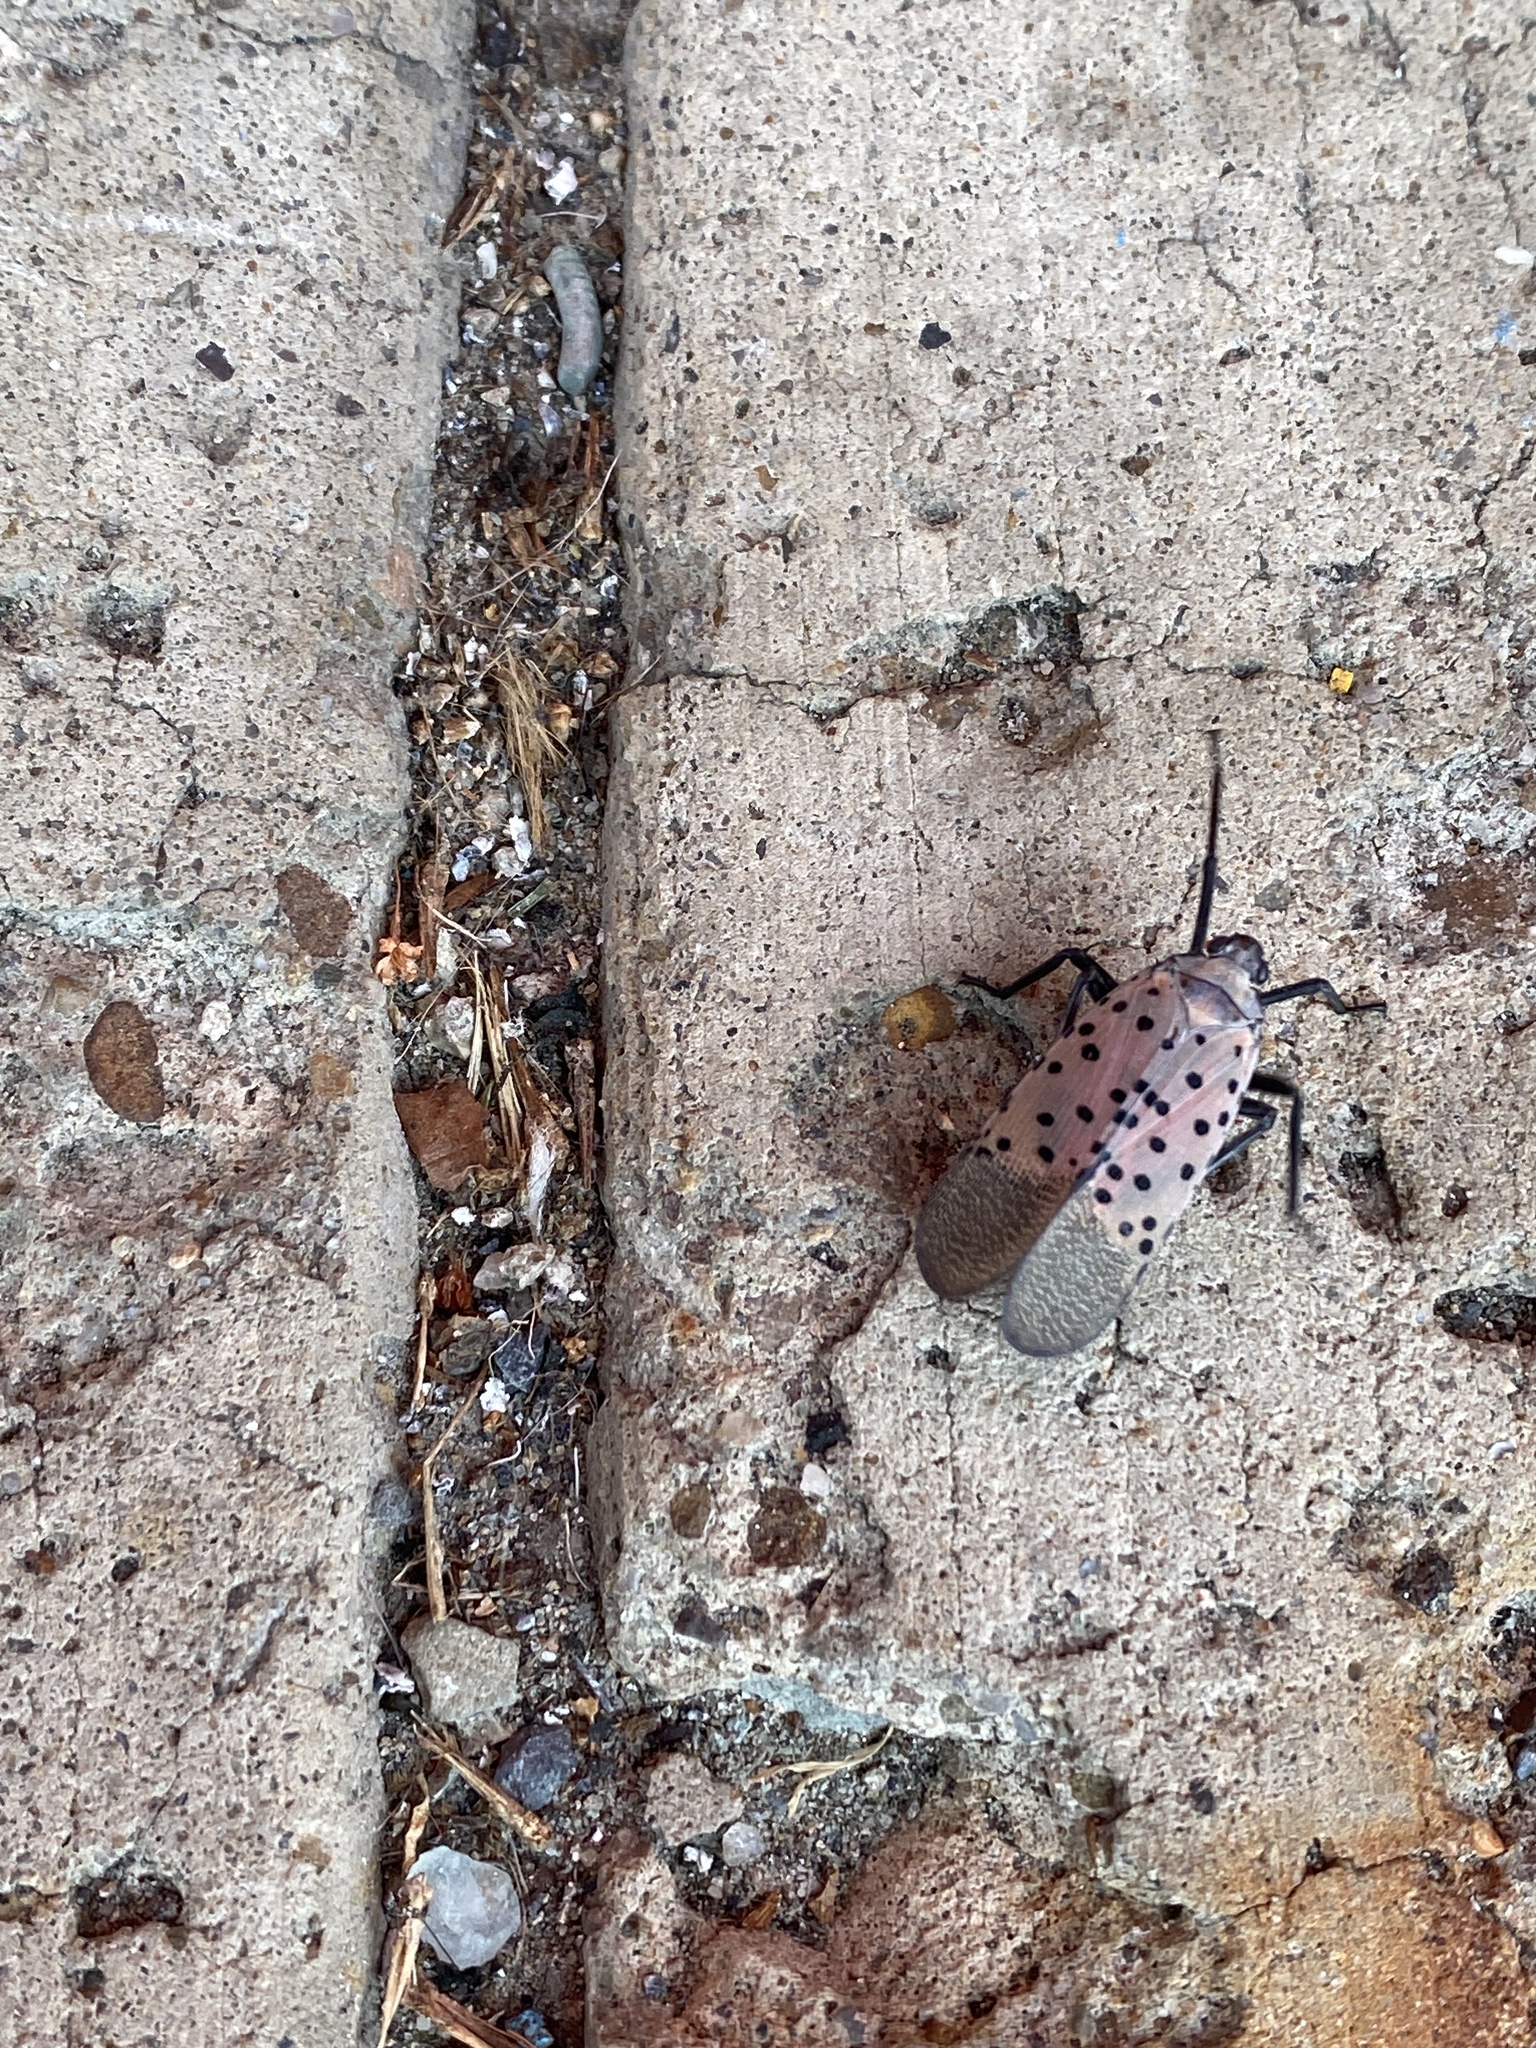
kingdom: Animalia
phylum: Arthropoda
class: Insecta
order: Hemiptera
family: Fulgoridae
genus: Lycorma
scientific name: Lycorma delicatula
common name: Spotted lanternfly
